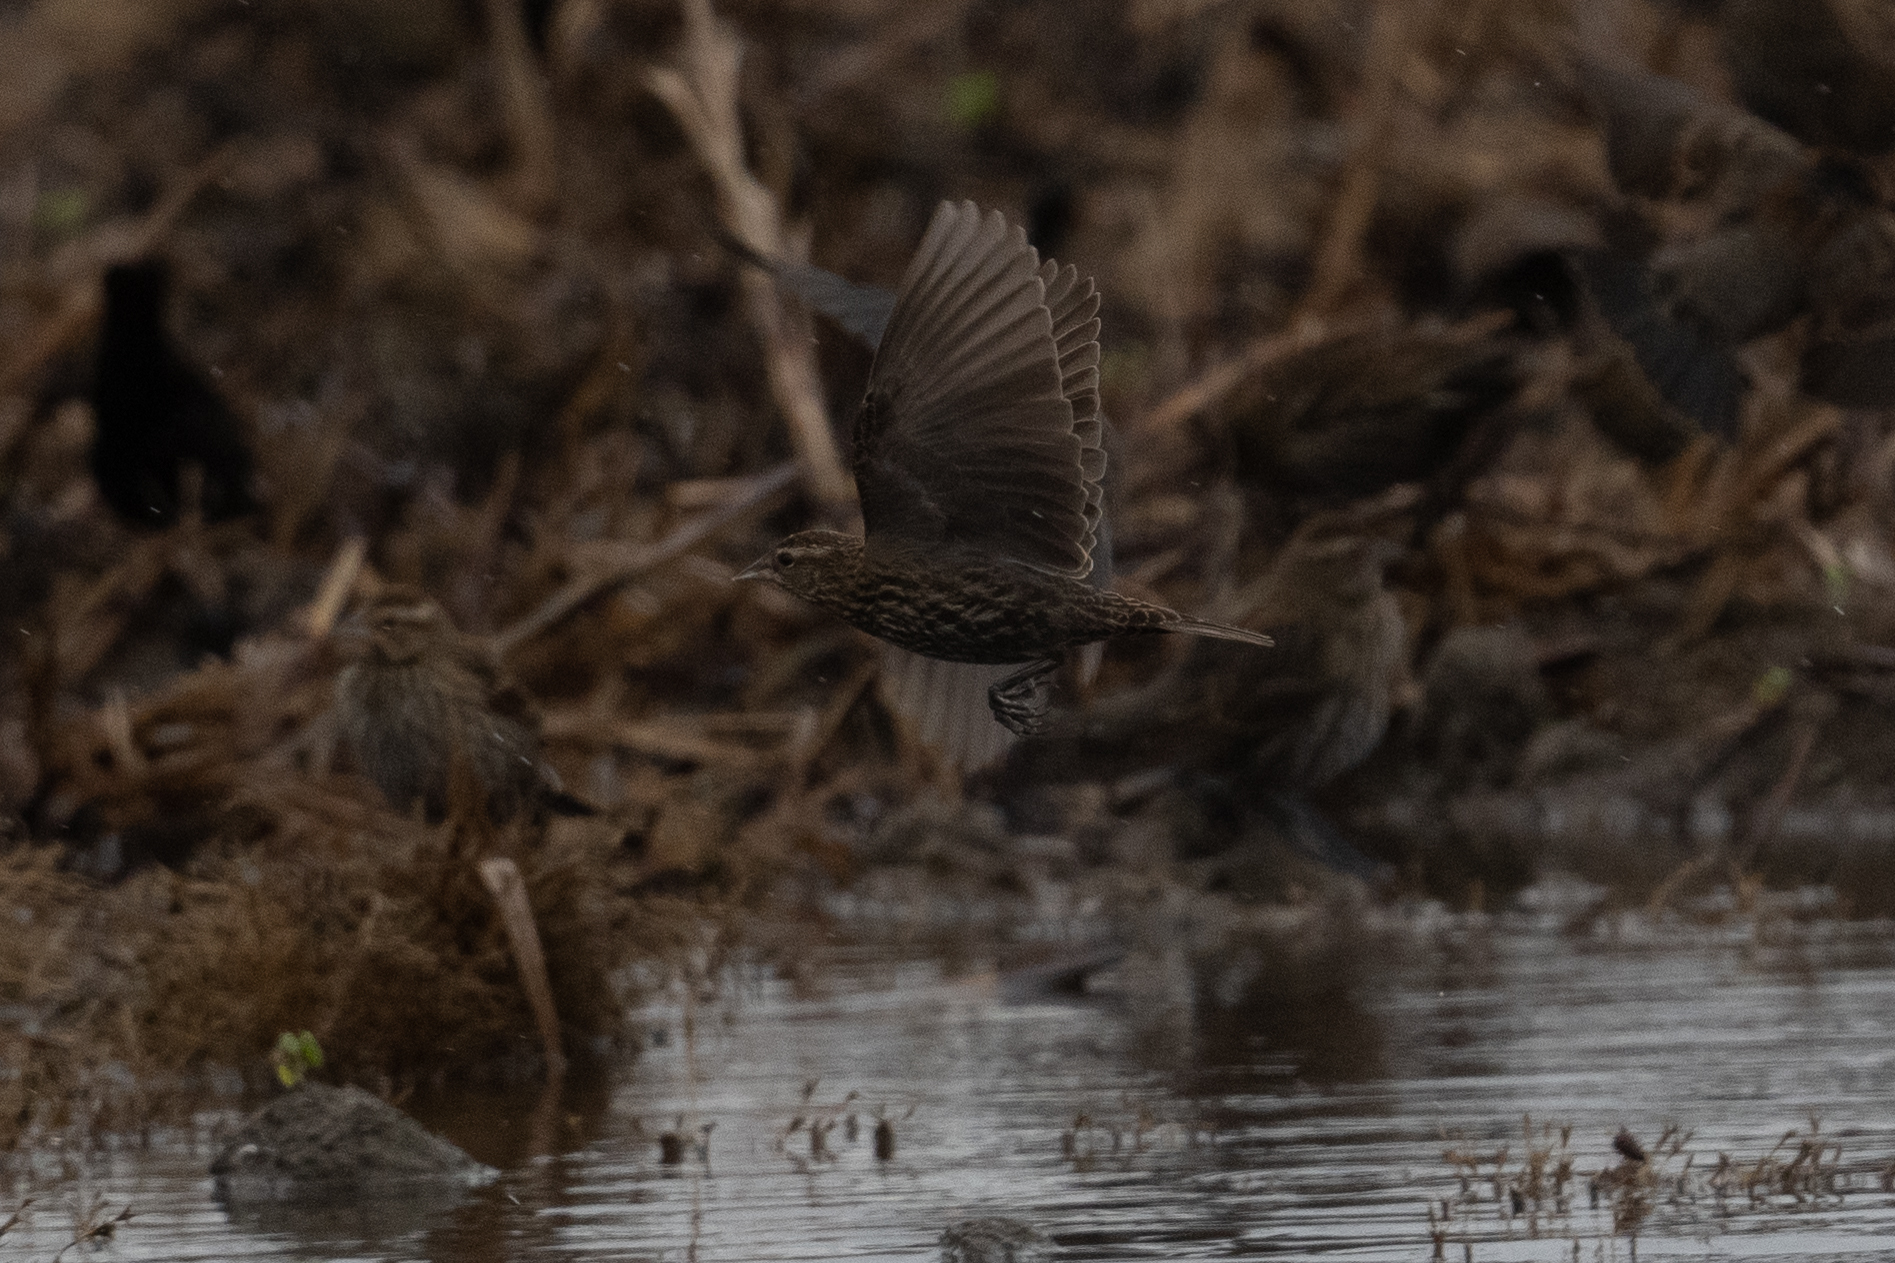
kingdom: Animalia
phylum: Chordata
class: Aves
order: Passeriformes
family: Icteridae
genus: Agelaius
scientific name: Agelaius phoeniceus
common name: Red-winged blackbird
